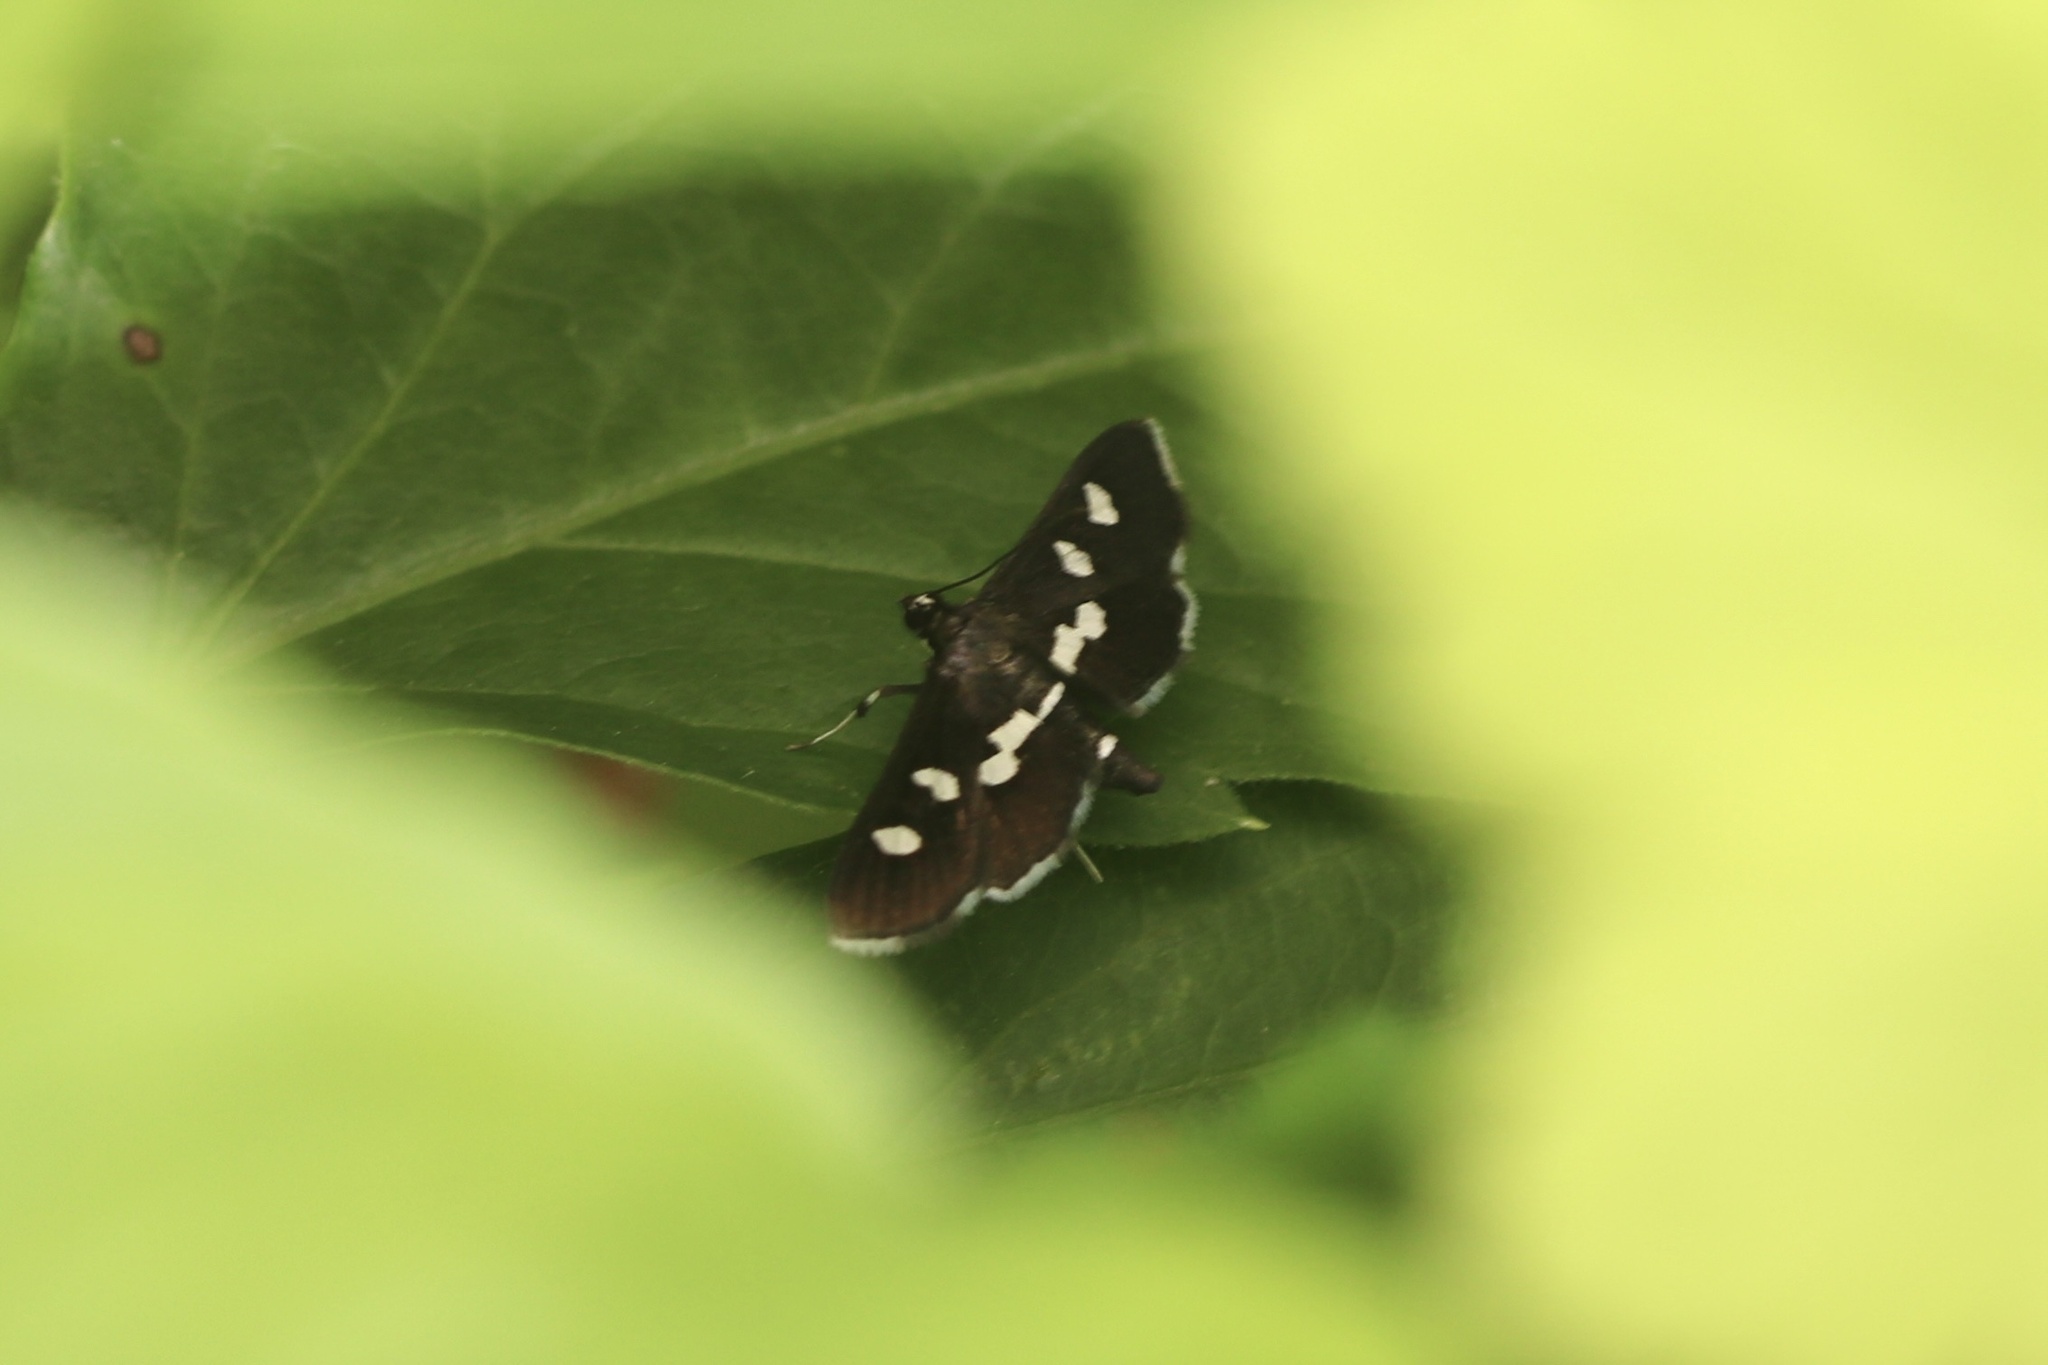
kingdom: Animalia
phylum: Arthropoda
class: Insecta
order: Lepidoptera
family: Crambidae
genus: Desmia
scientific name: Desmia funeralis
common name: Grape leaf folder moth
